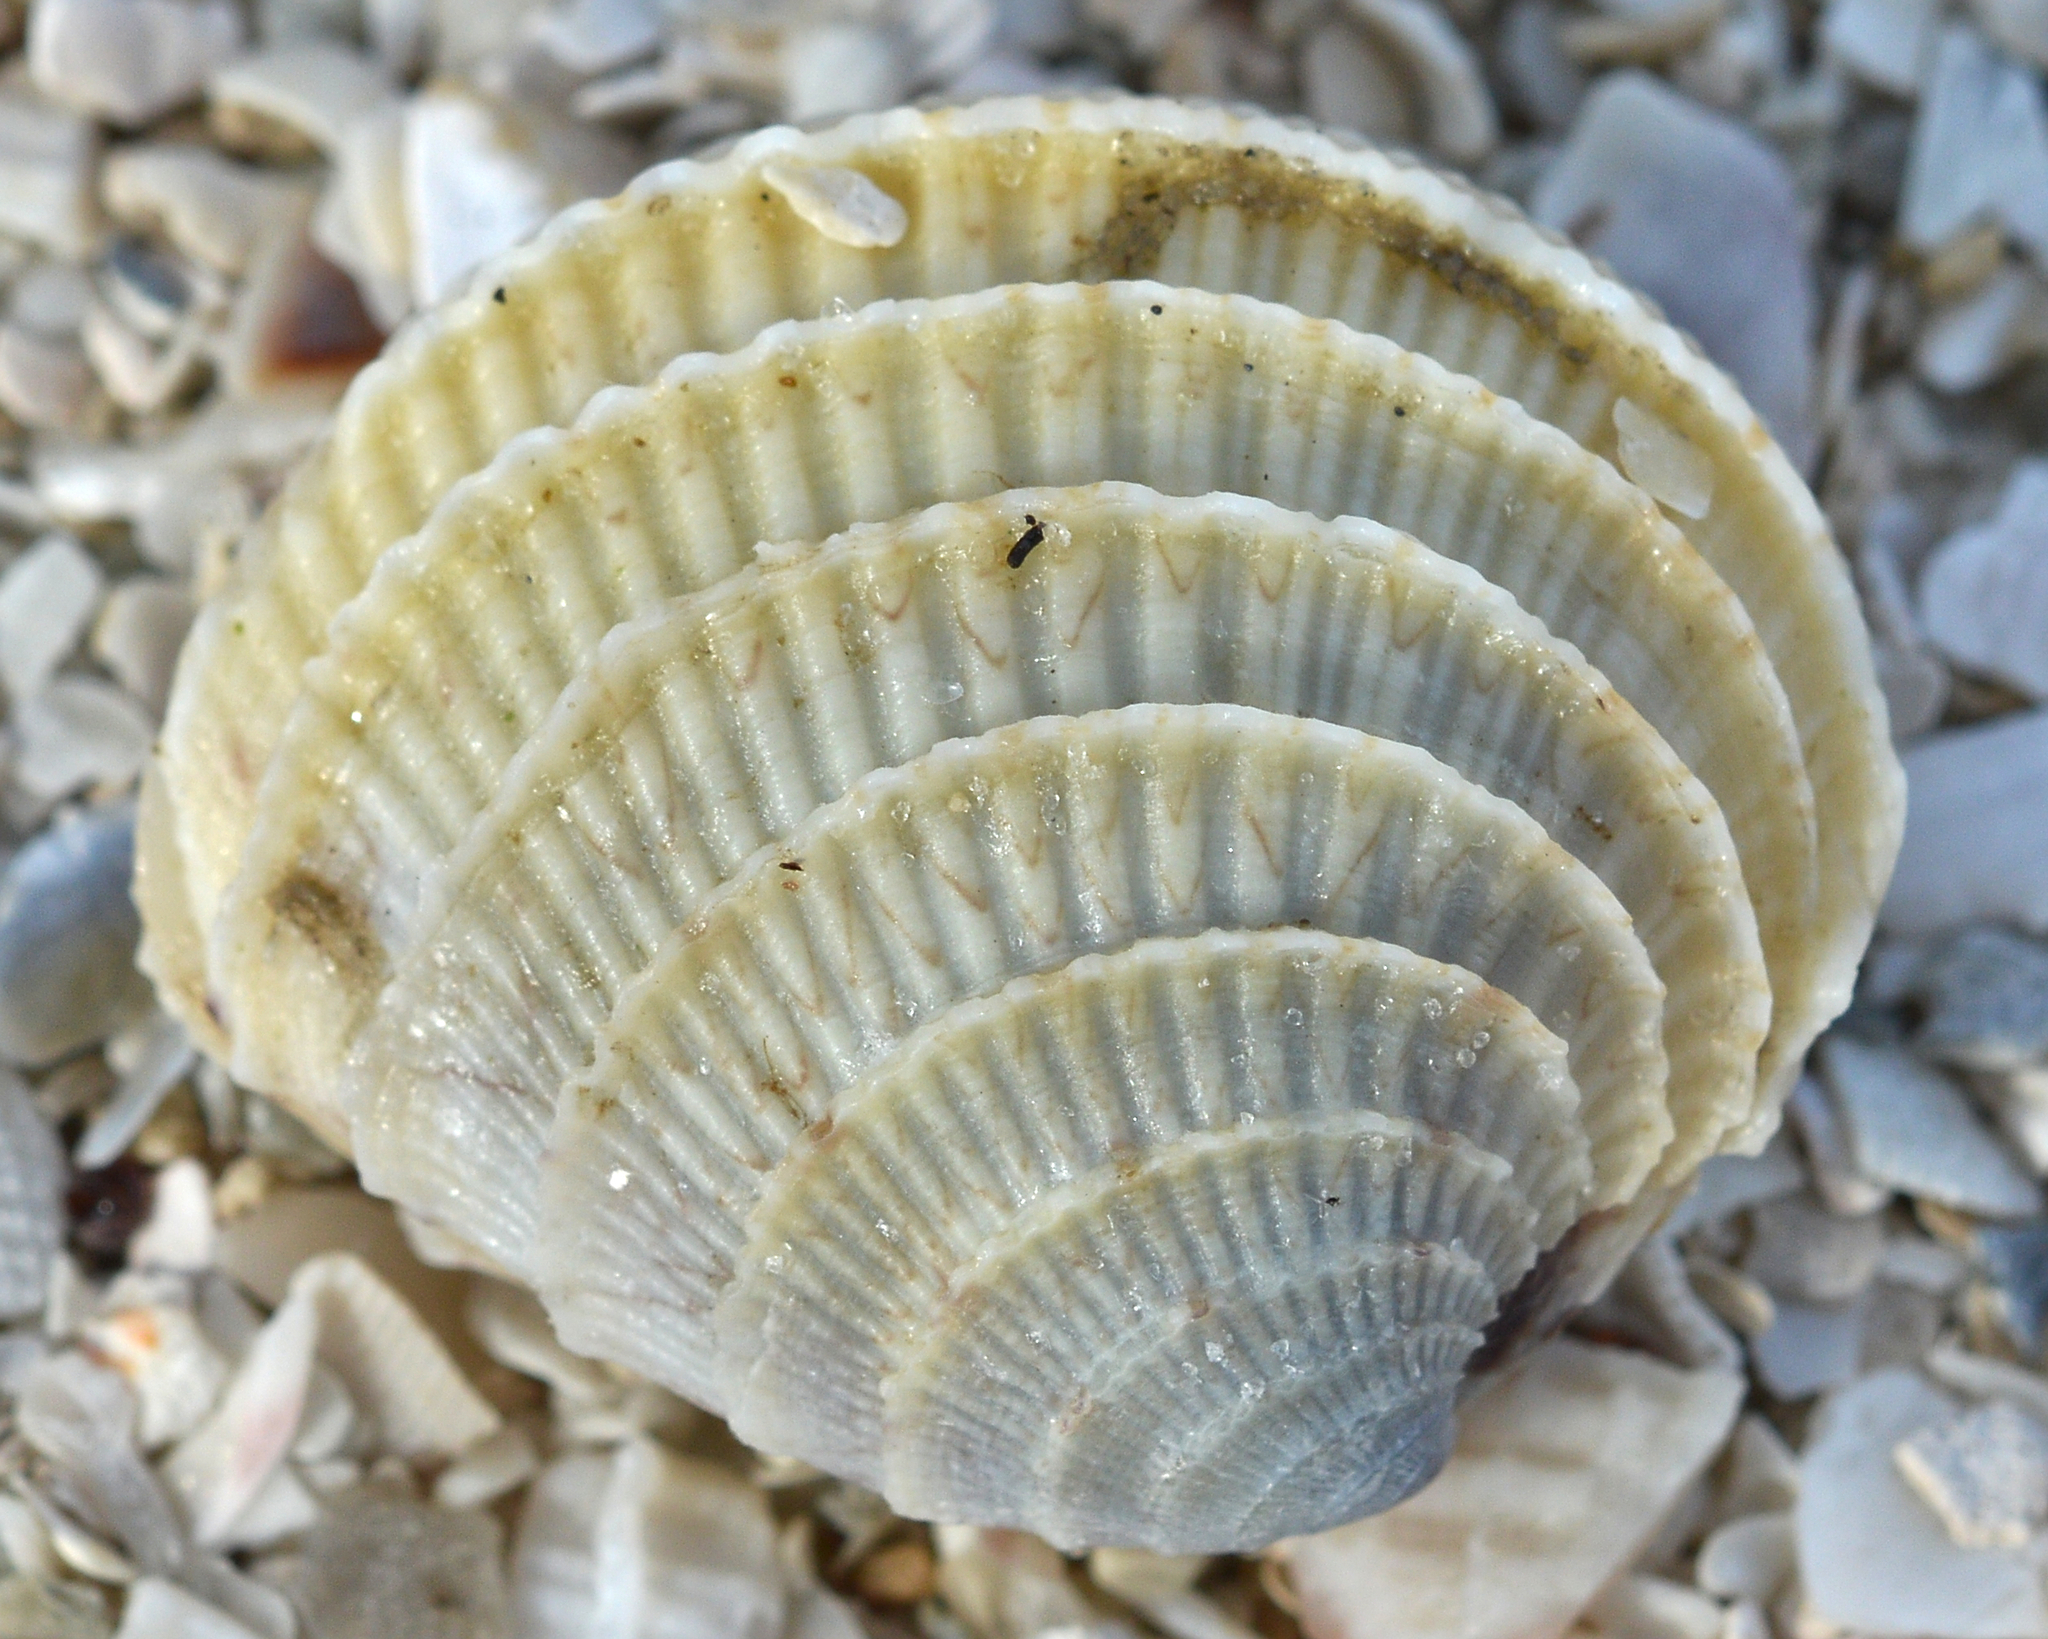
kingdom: Animalia
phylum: Mollusca
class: Bivalvia
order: Venerida
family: Veneridae
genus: Chione
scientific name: Chione elevata
